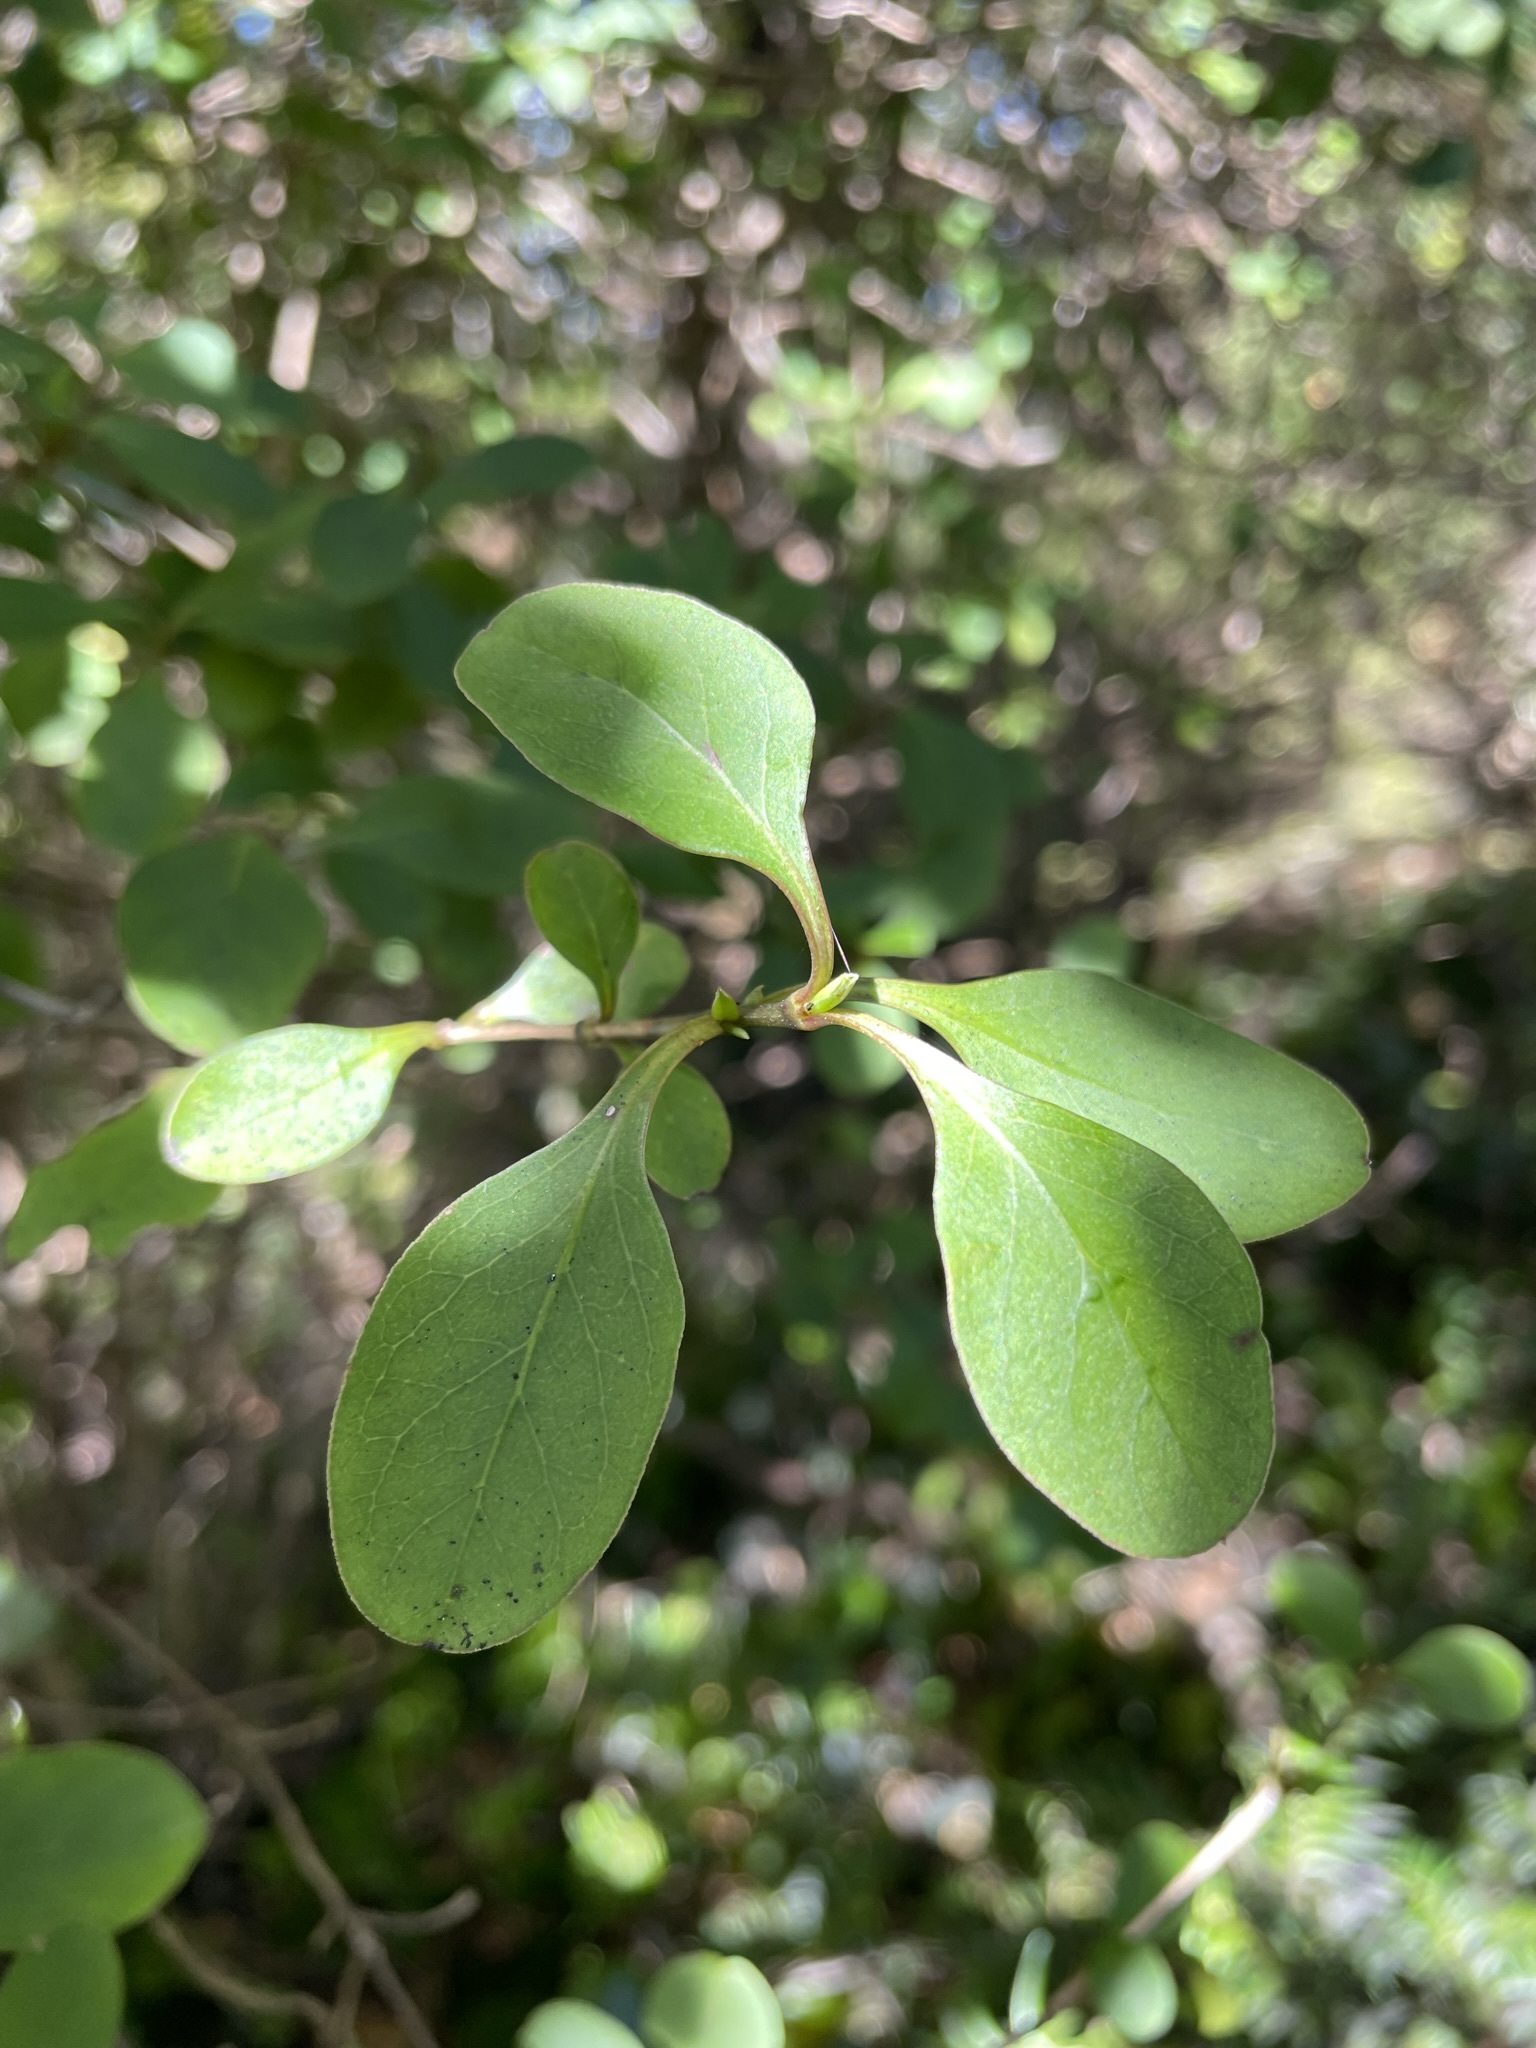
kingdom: Plantae
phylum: Tracheophyta
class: Magnoliopsida
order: Gentianales
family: Rubiaceae
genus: Coprosma
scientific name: Coprosma foetidissima
